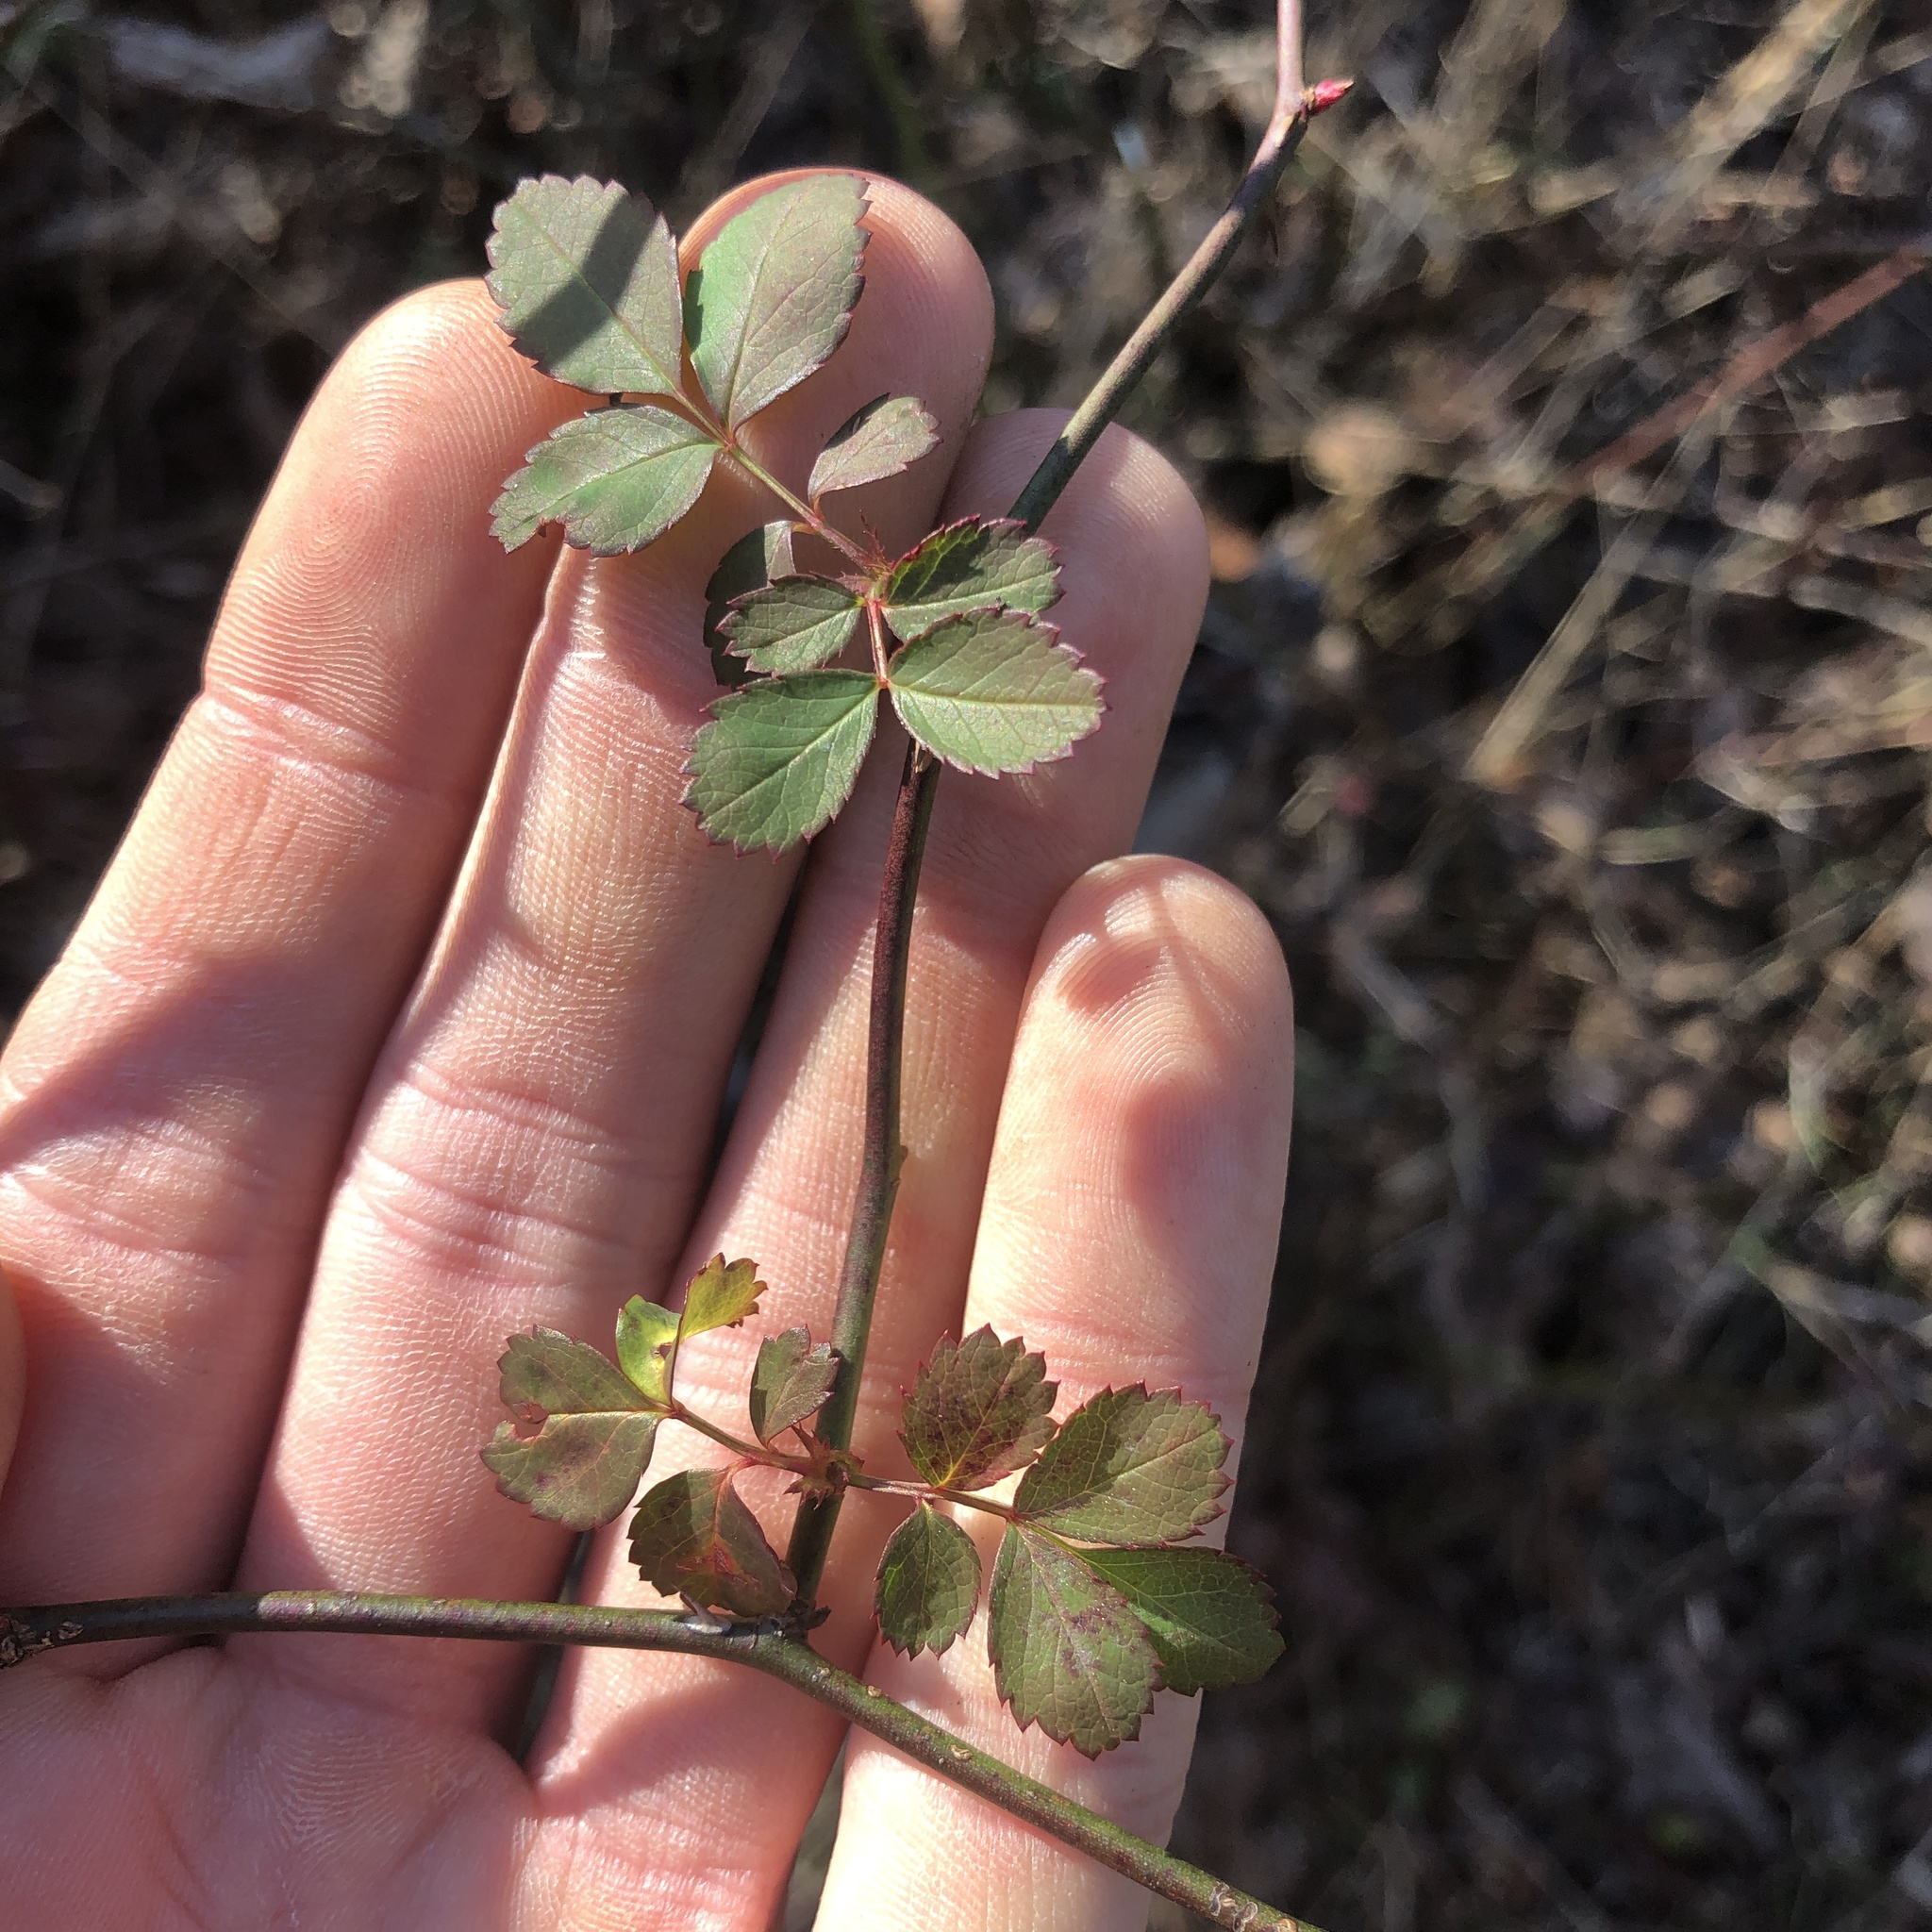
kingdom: Plantae
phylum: Tracheophyta
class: Magnoliopsida
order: Rosales
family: Rosaceae
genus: Rosa
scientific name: Rosa multiflora
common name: Multiflora rose
